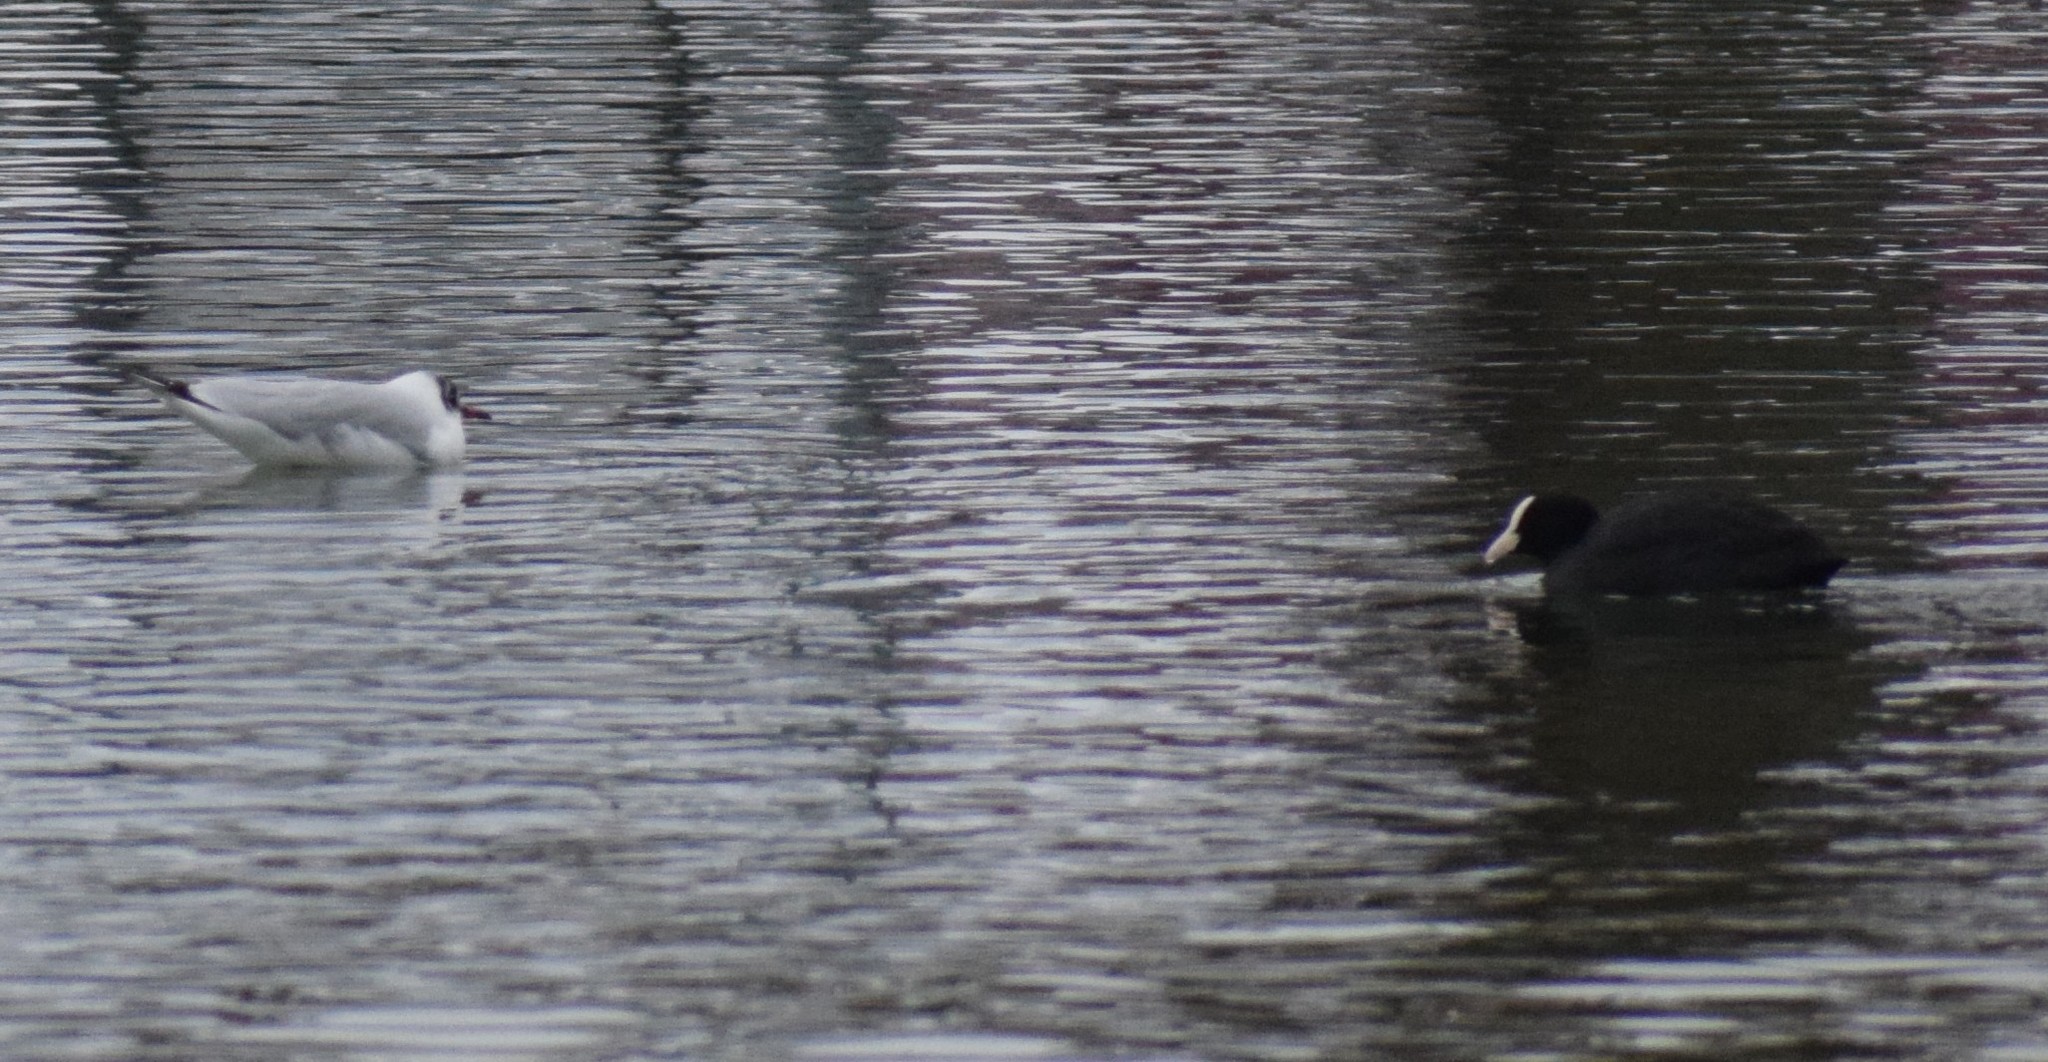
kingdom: Animalia
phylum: Chordata
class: Aves
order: Gruiformes
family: Rallidae
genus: Fulica
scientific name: Fulica atra
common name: Eurasian coot
